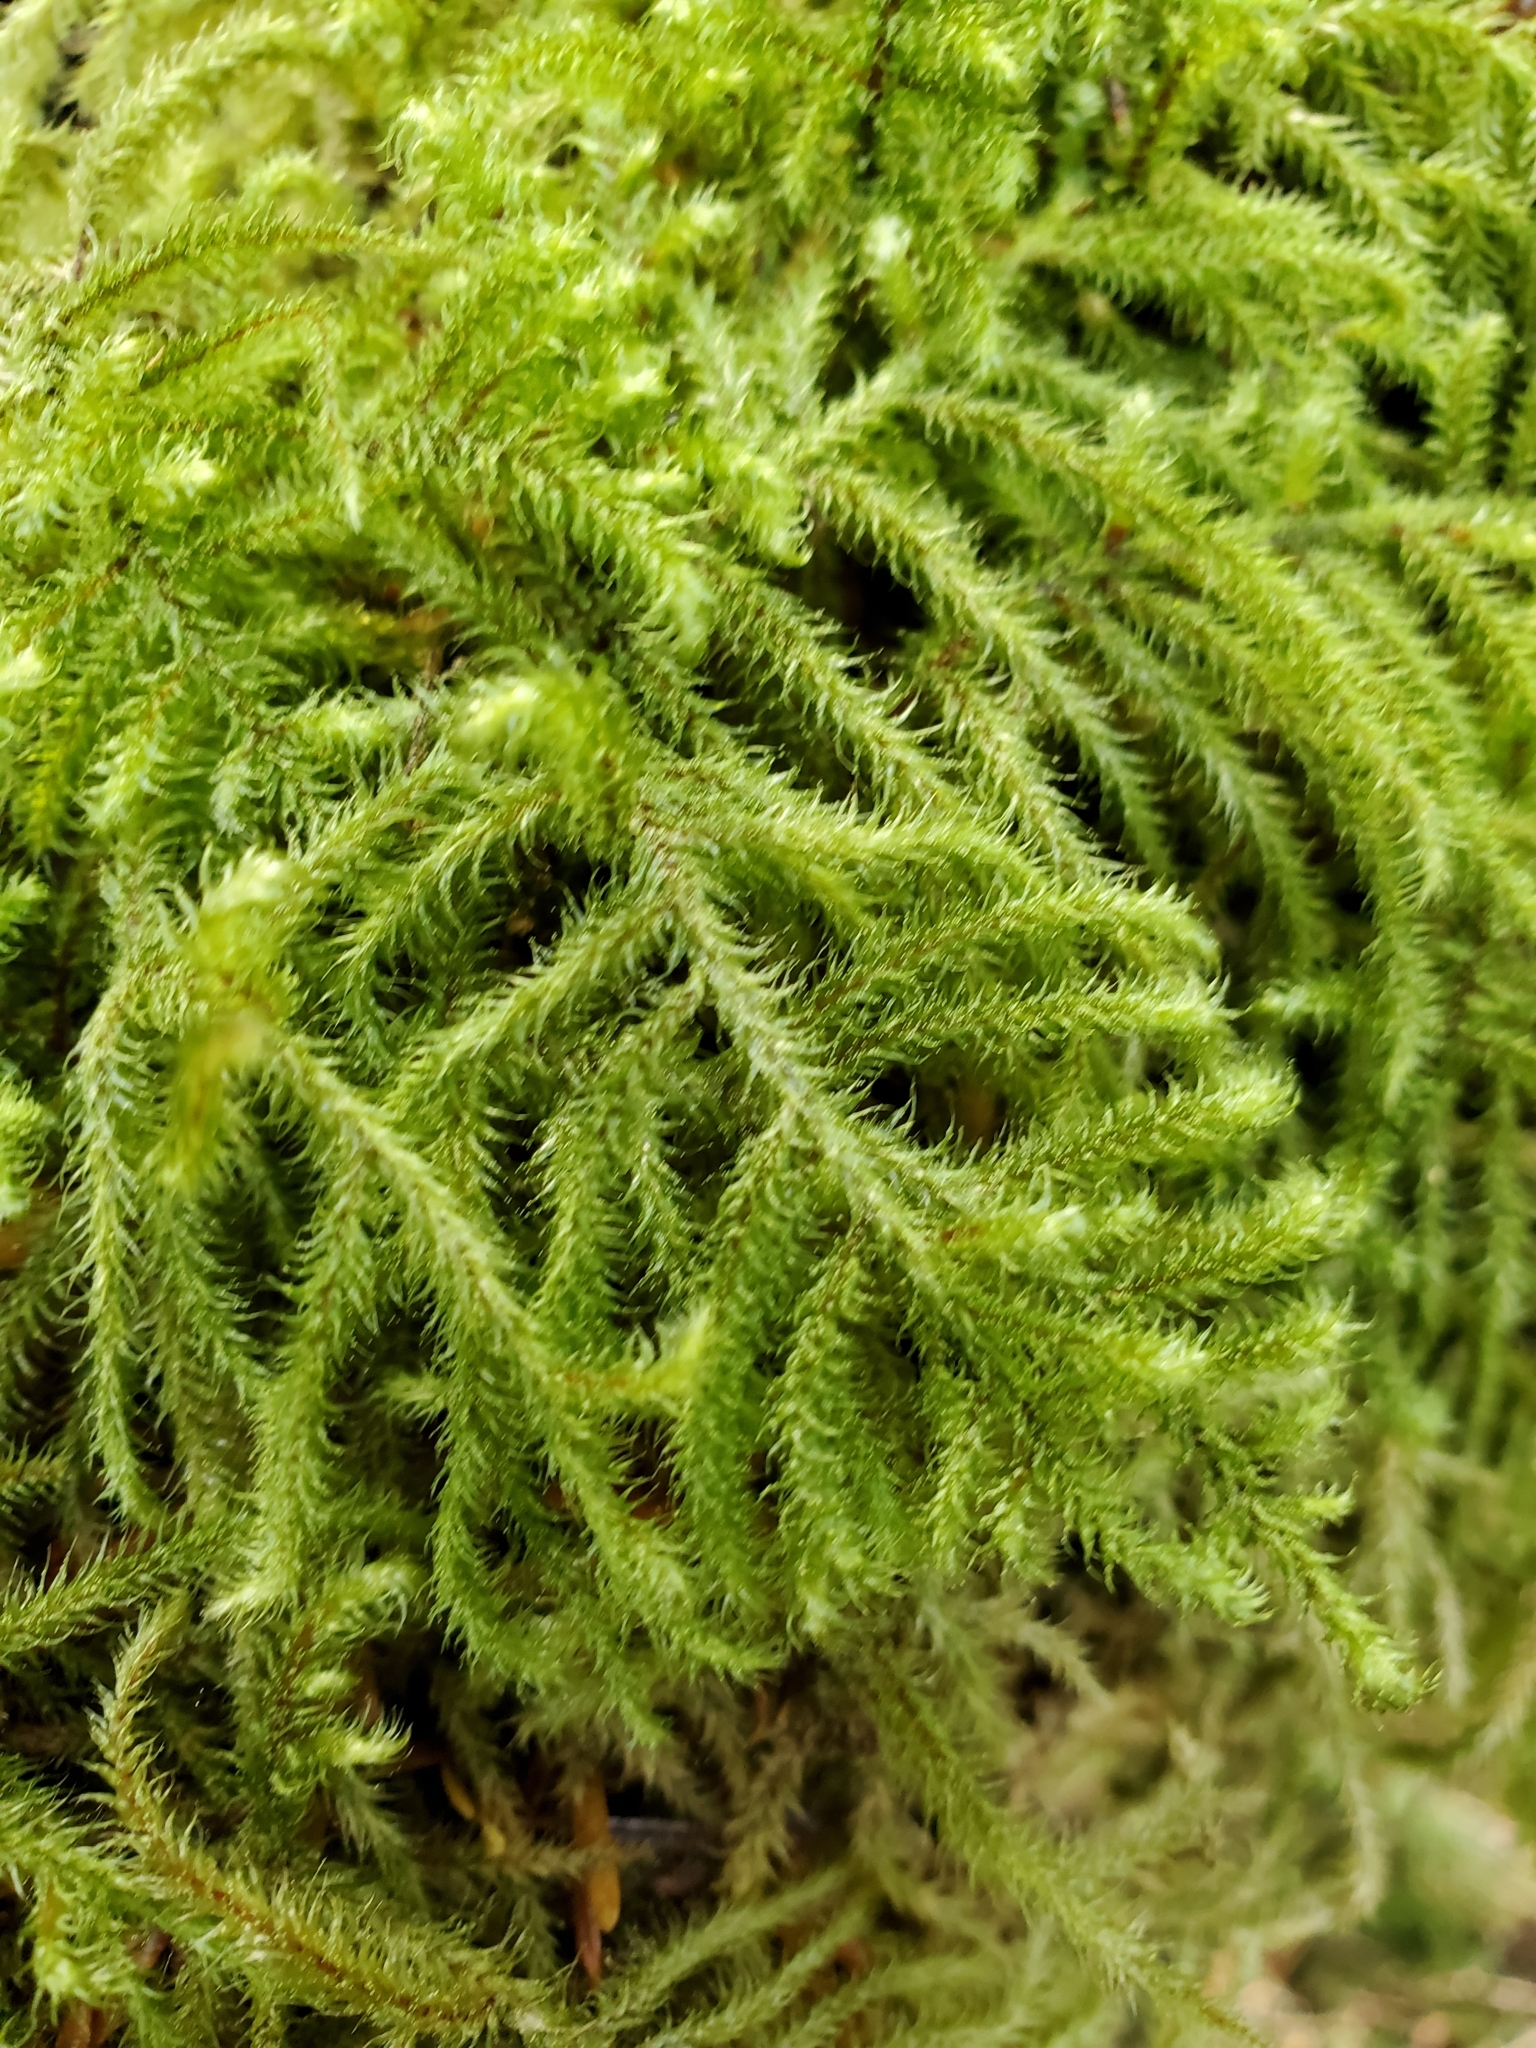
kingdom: Plantae
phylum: Bryophyta
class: Bryopsida
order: Hypnales
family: Hylocomiaceae
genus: Rhytidiadelphus
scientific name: Rhytidiadelphus loreus
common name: Lanky moss
